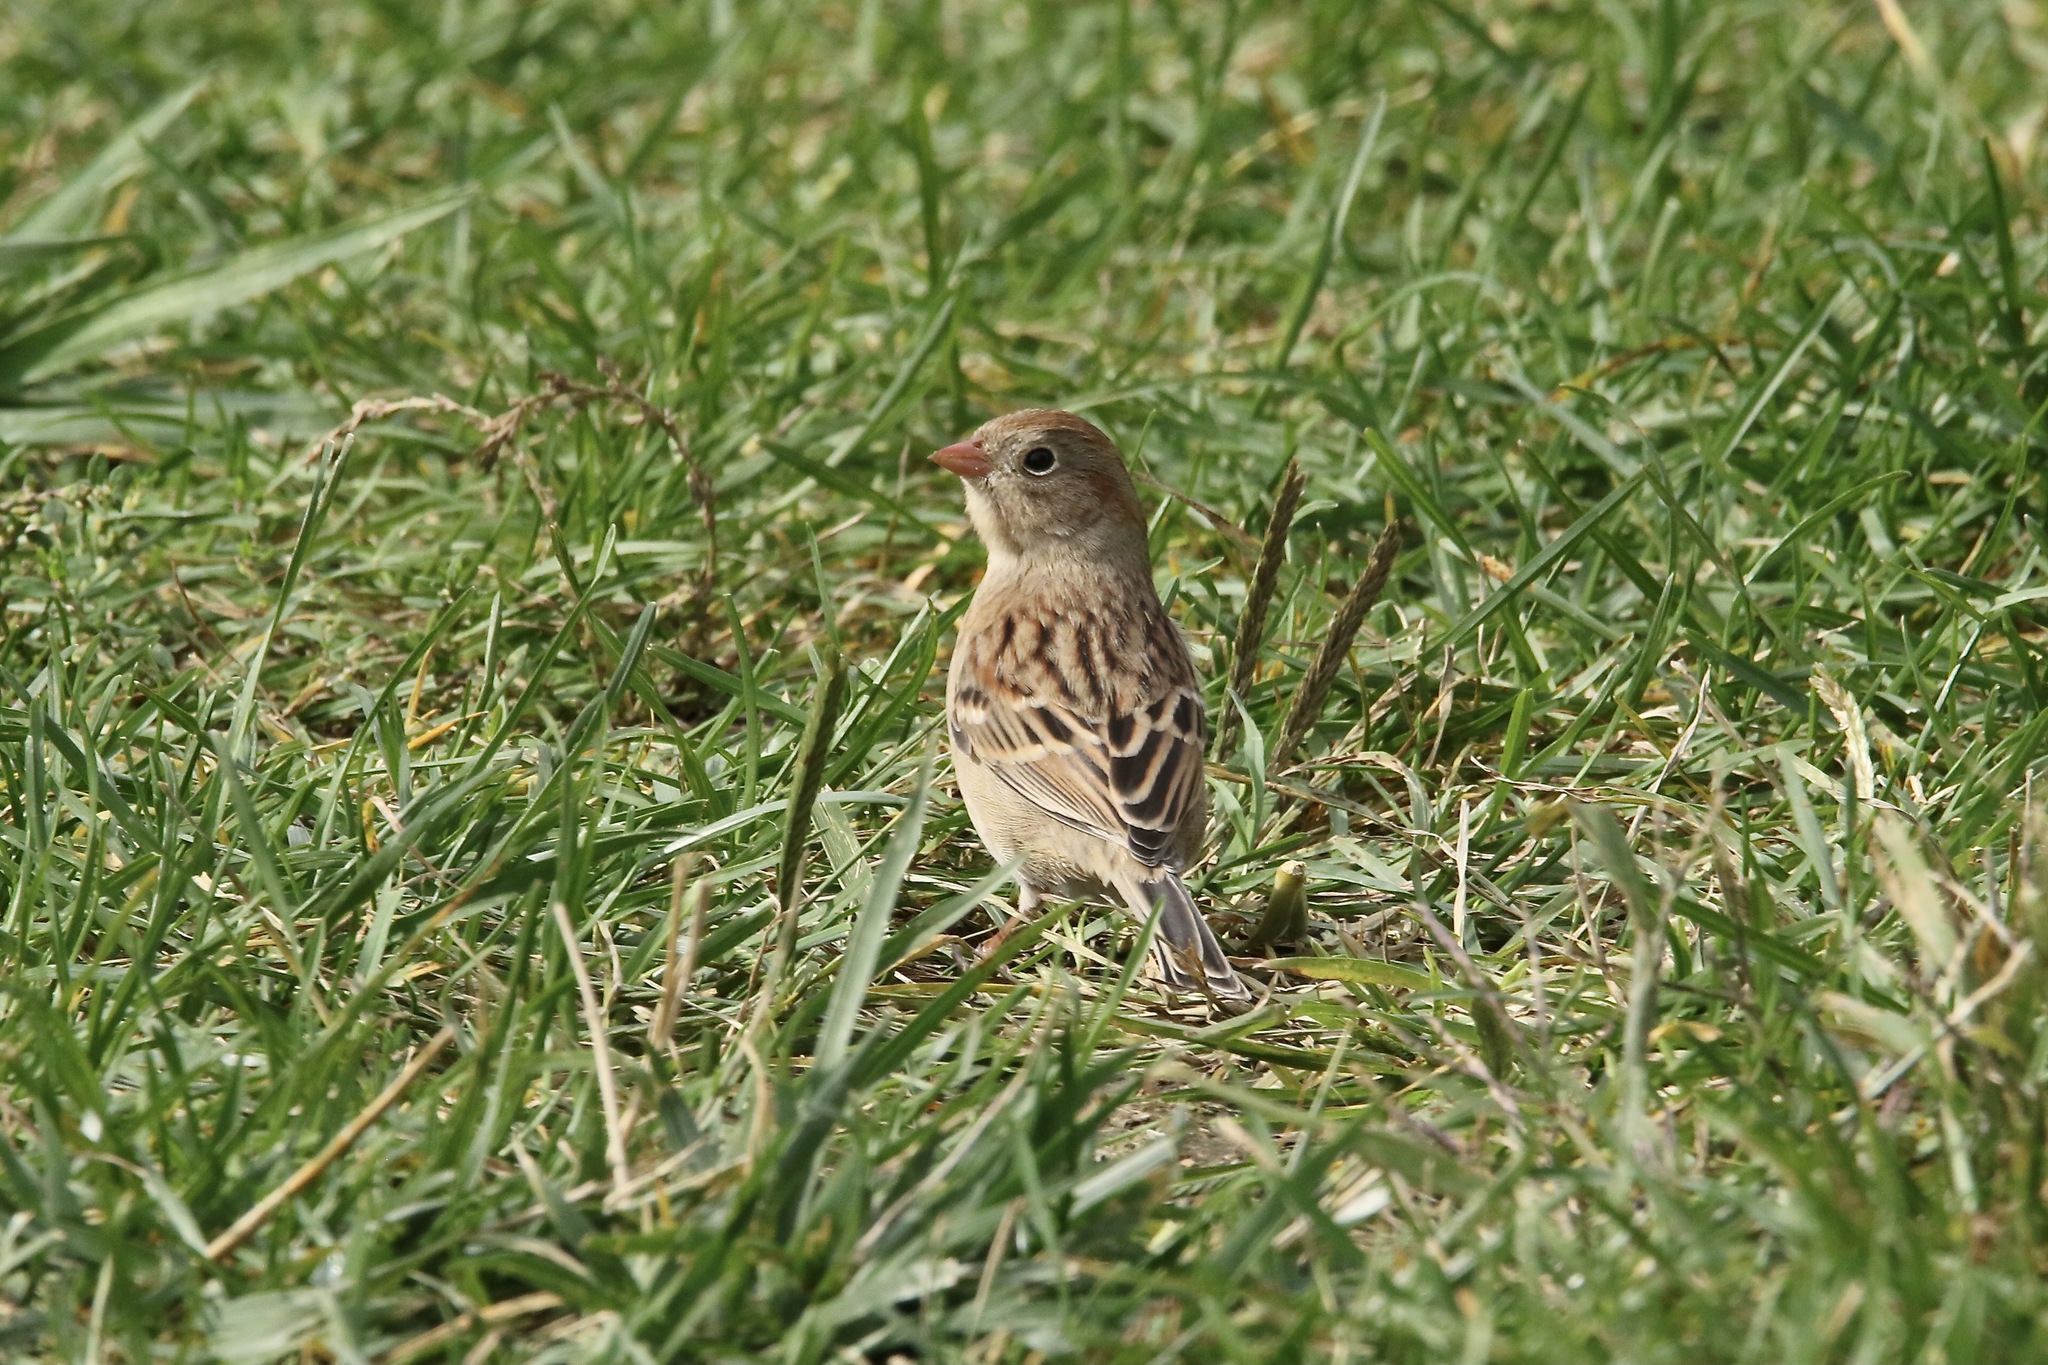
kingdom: Animalia
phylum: Chordata
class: Aves
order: Passeriformes
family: Passerellidae
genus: Spizella
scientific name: Spizella pusilla
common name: Field sparrow
